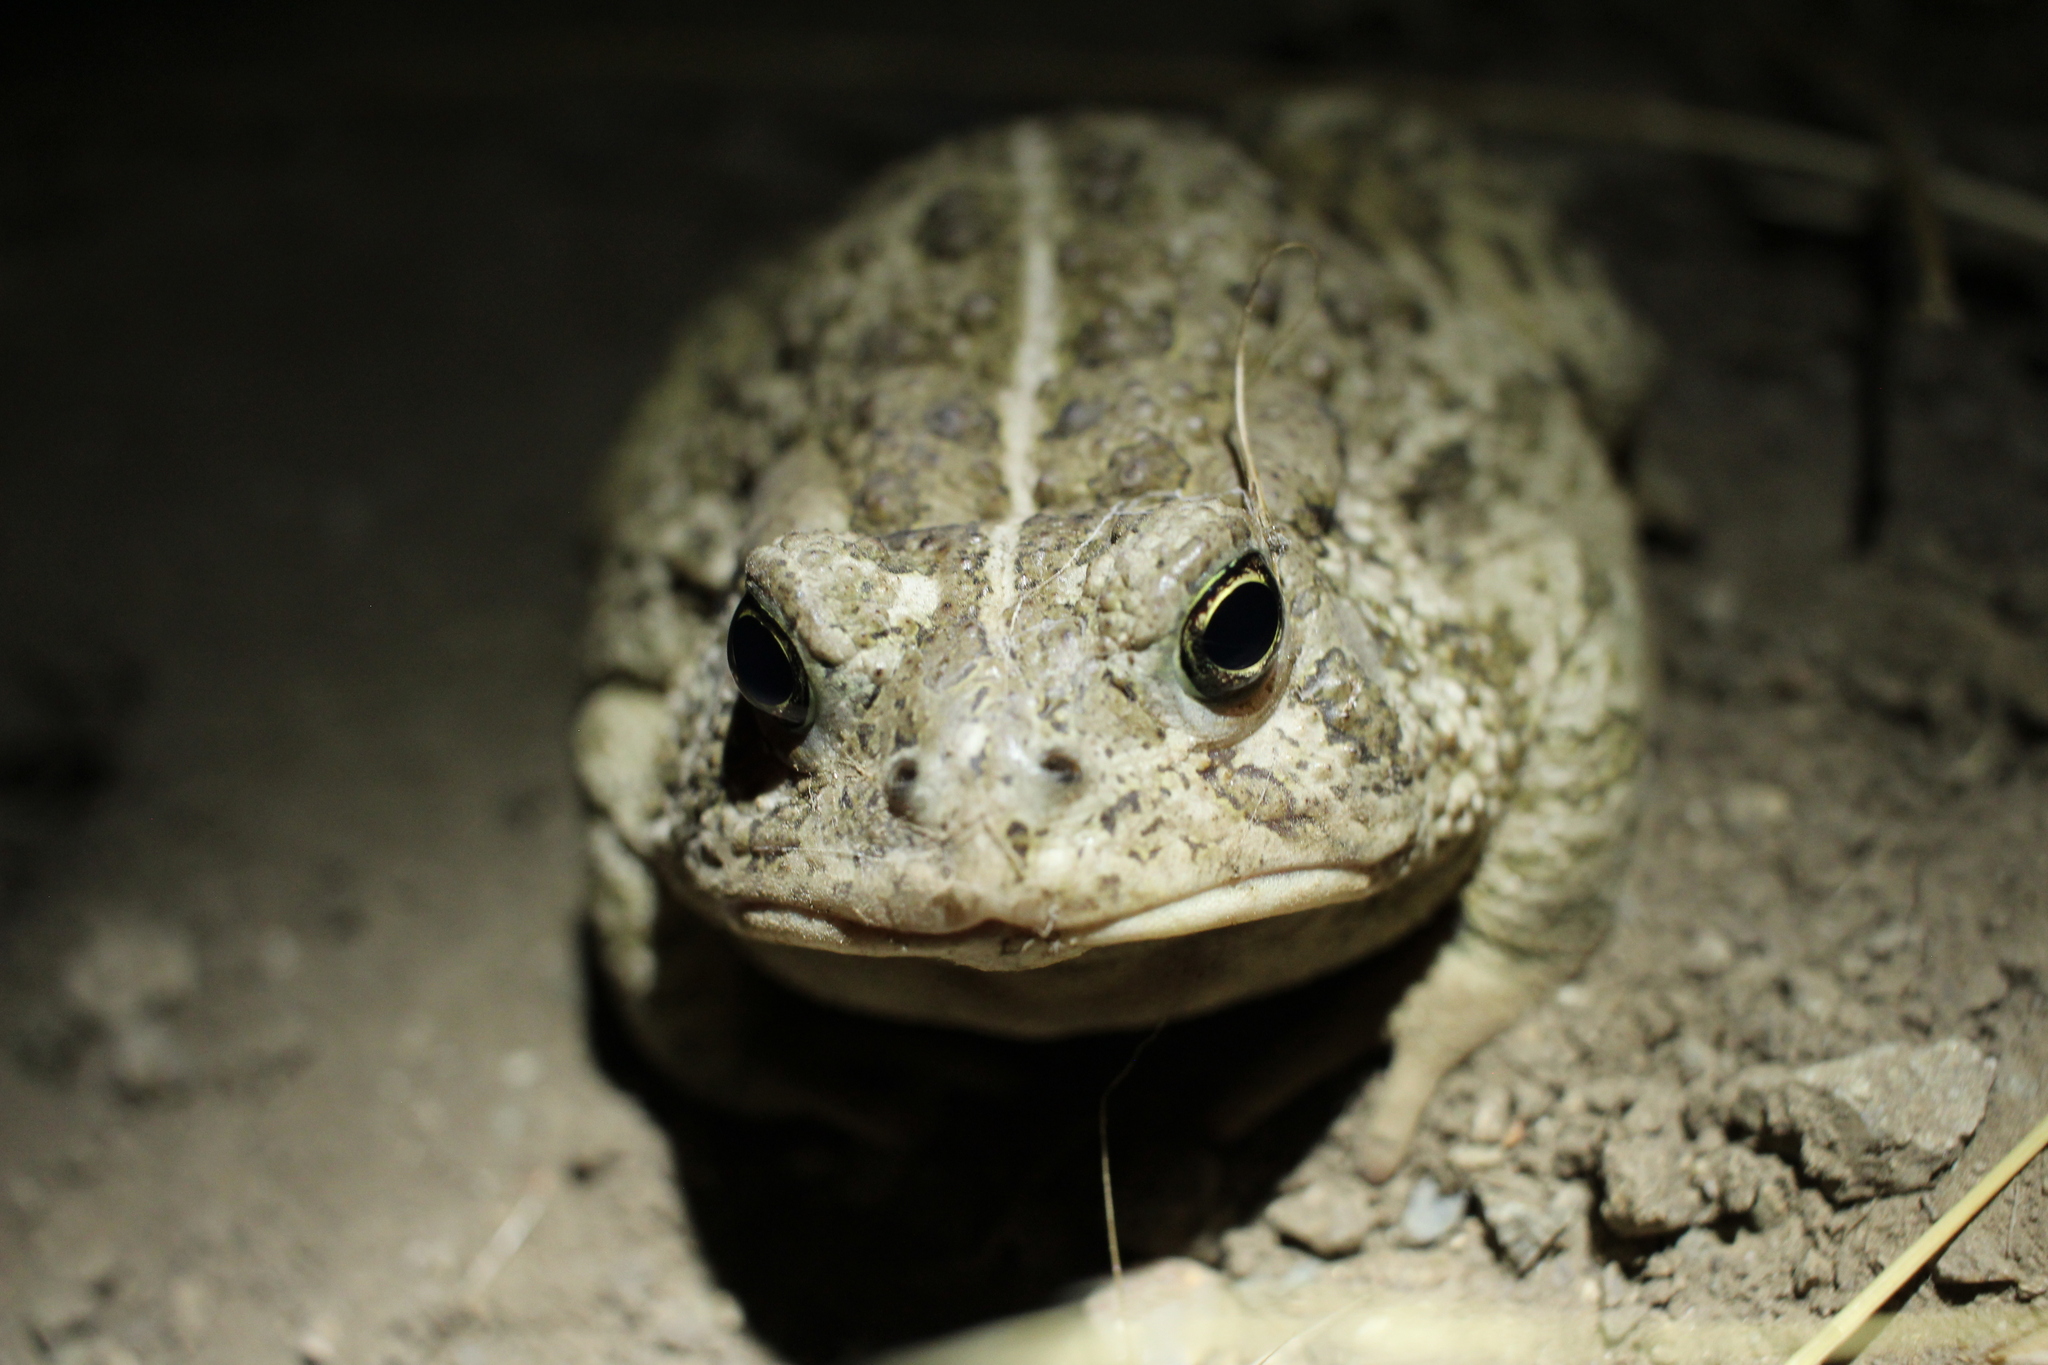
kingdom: Animalia
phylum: Chordata
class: Amphibia
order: Anura
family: Bufonidae
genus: Anaxyrus
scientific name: Anaxyrus woodhousii
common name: Woodhouse's toad
